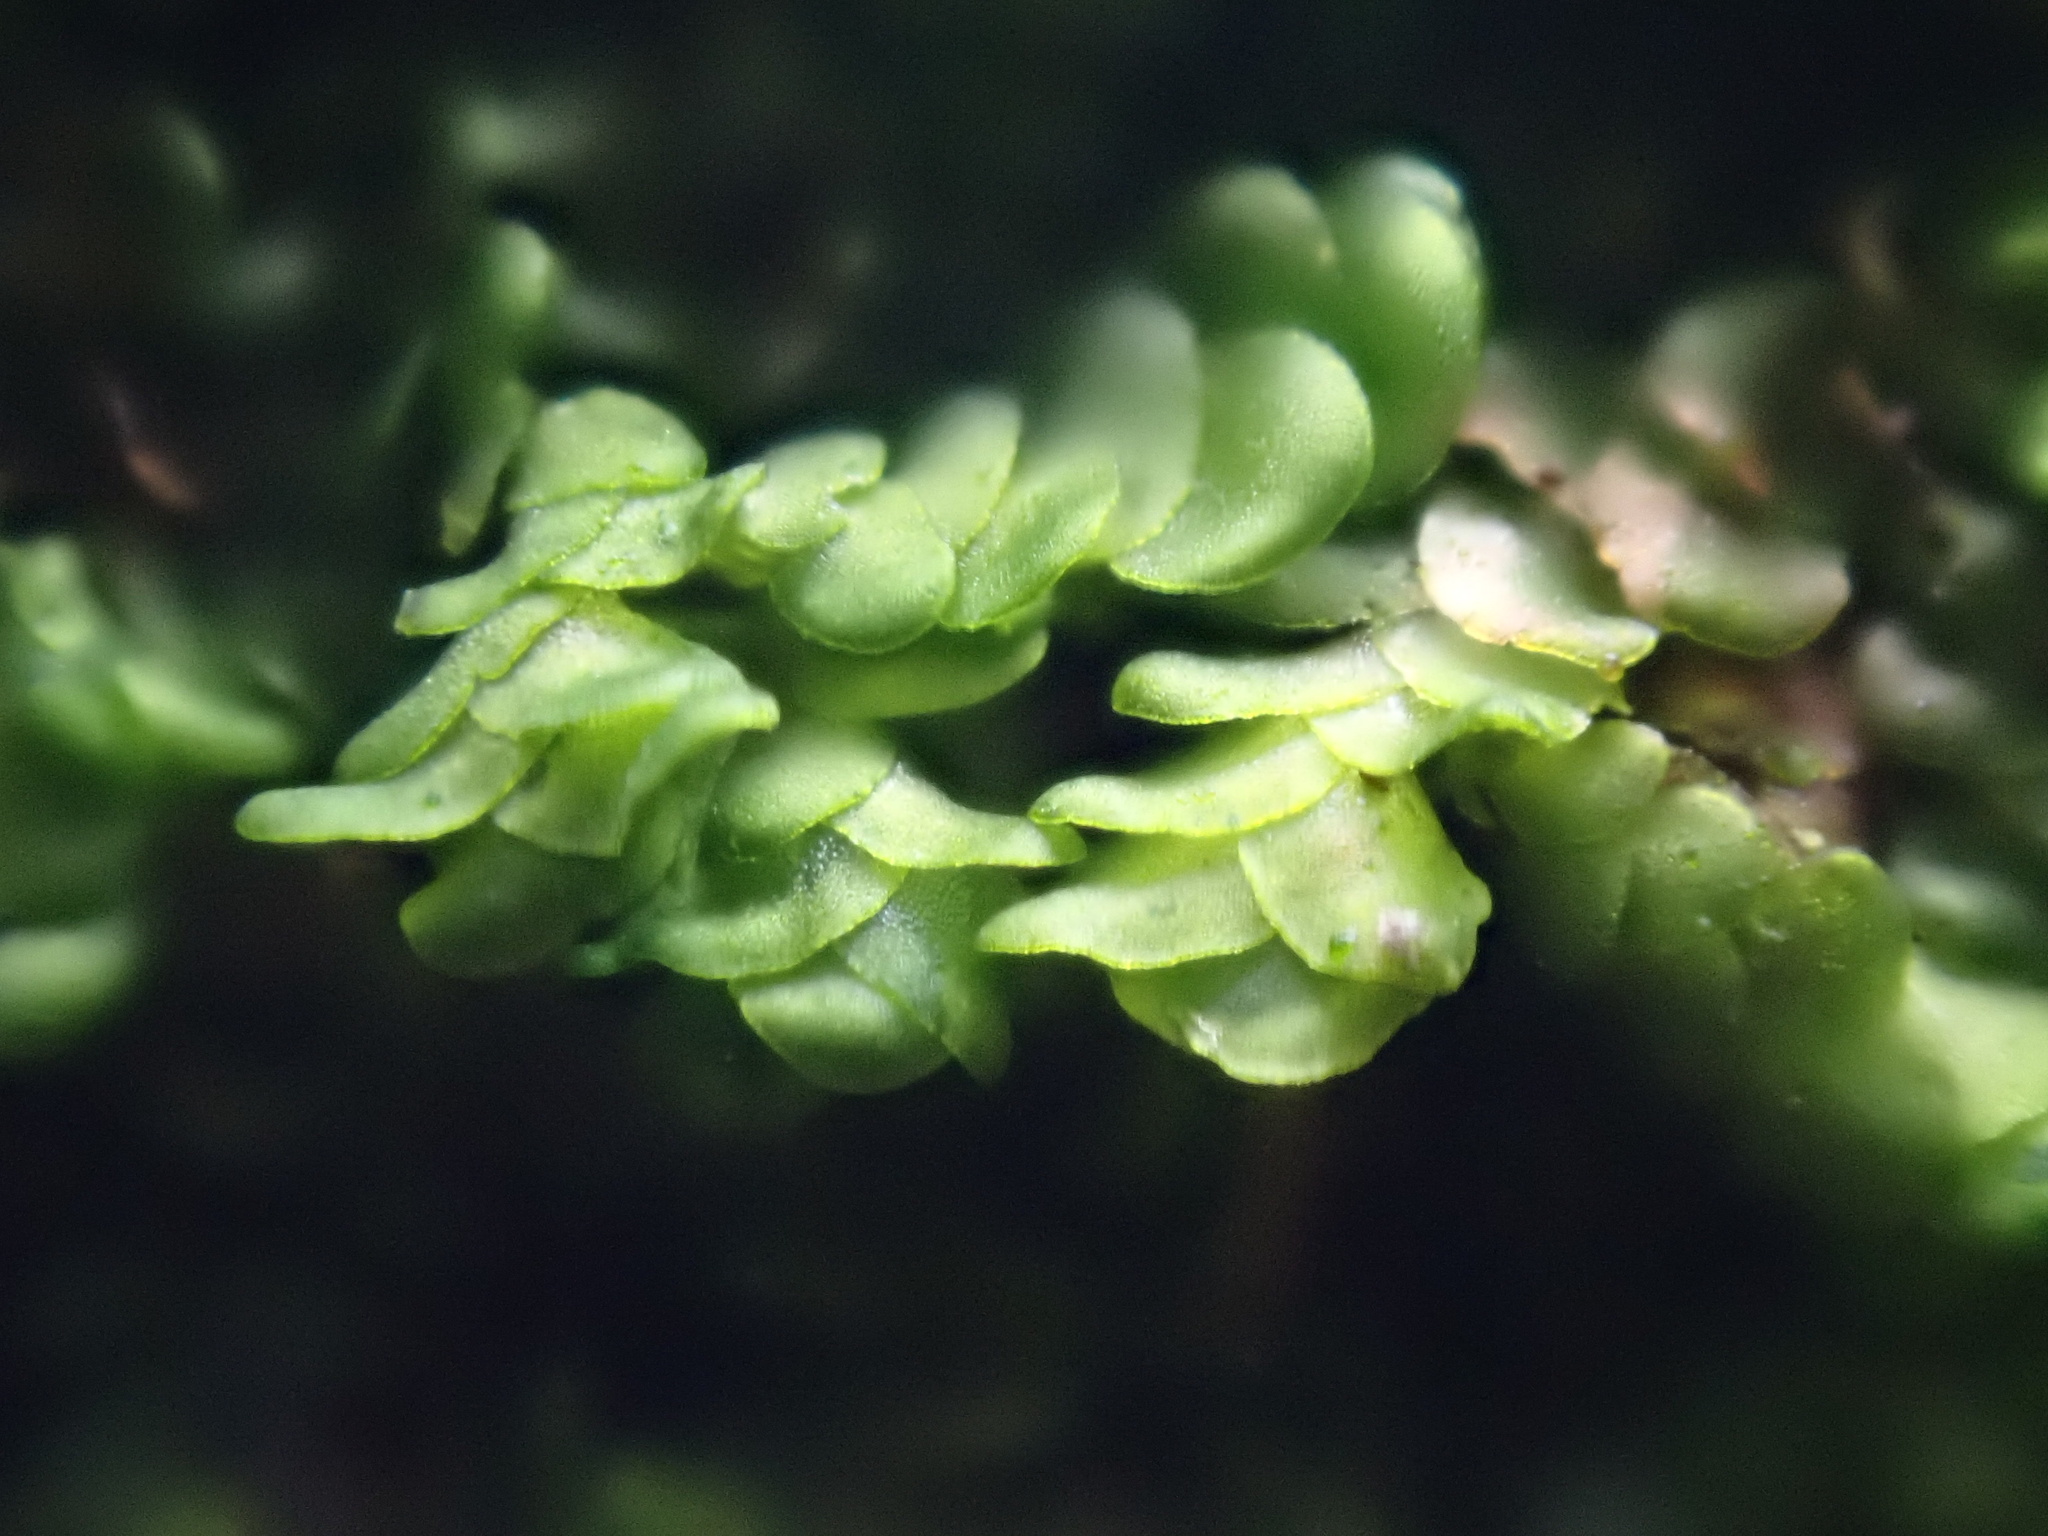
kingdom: Plantae
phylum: Marchantiophyta
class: Jungermanniopsida
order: Porellales
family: Frullaniaceae
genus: Frullania
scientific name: Frullania dilatata
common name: Dilated scalewort
